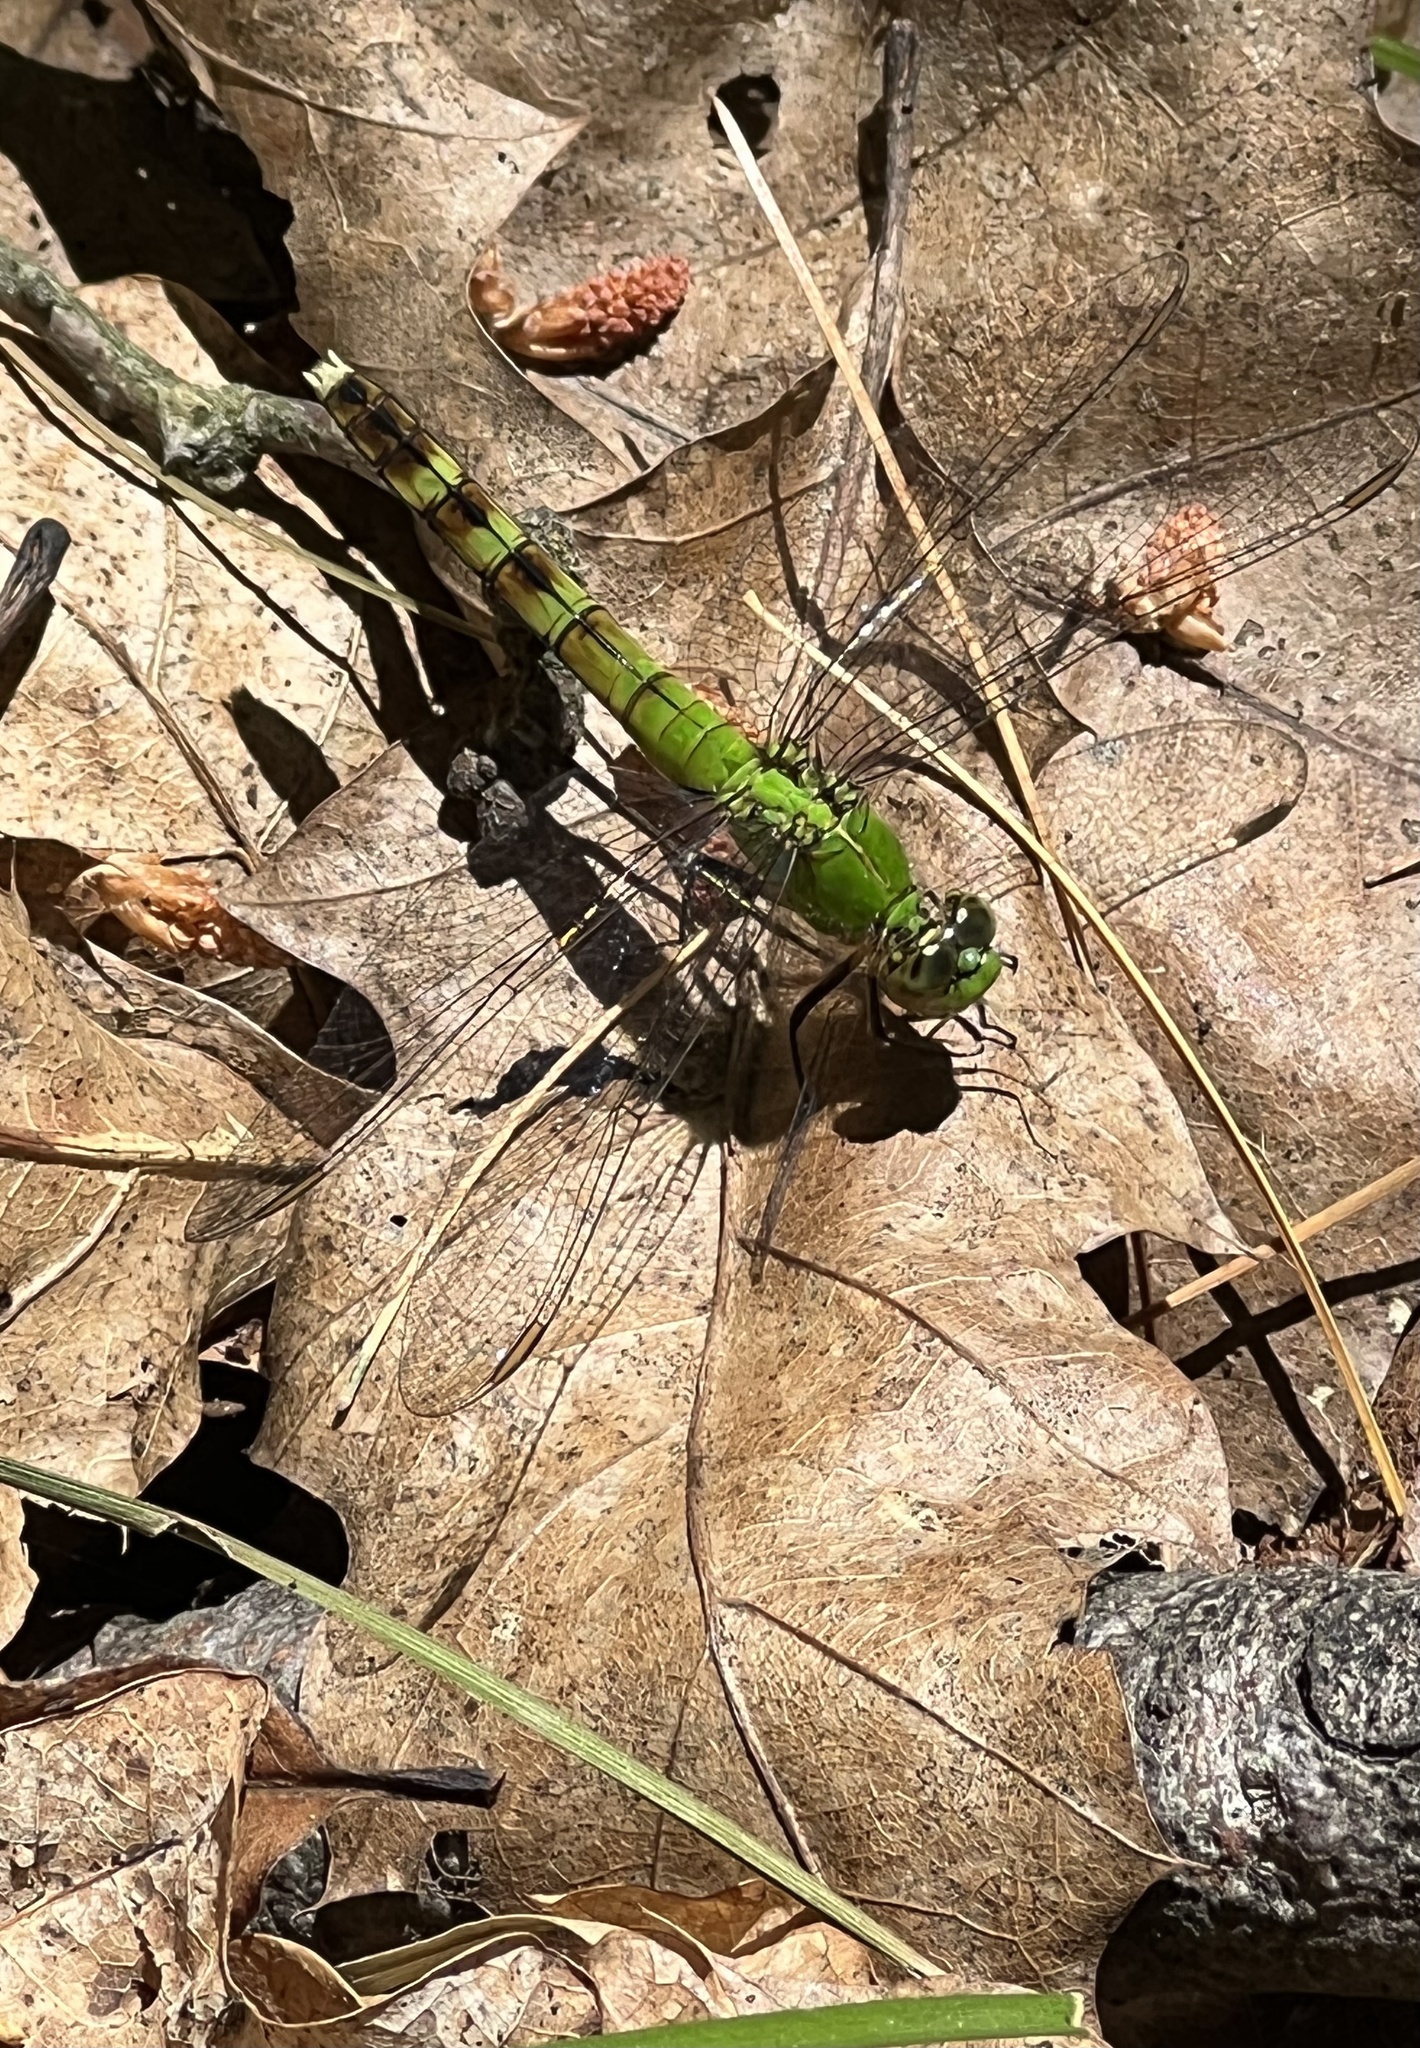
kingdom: Animalia
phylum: Arthropoda
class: Insecta
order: Odonata
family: Libellulidae
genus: Erythemis
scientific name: Erythemis simplicicollis
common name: Eastern pondhawk
